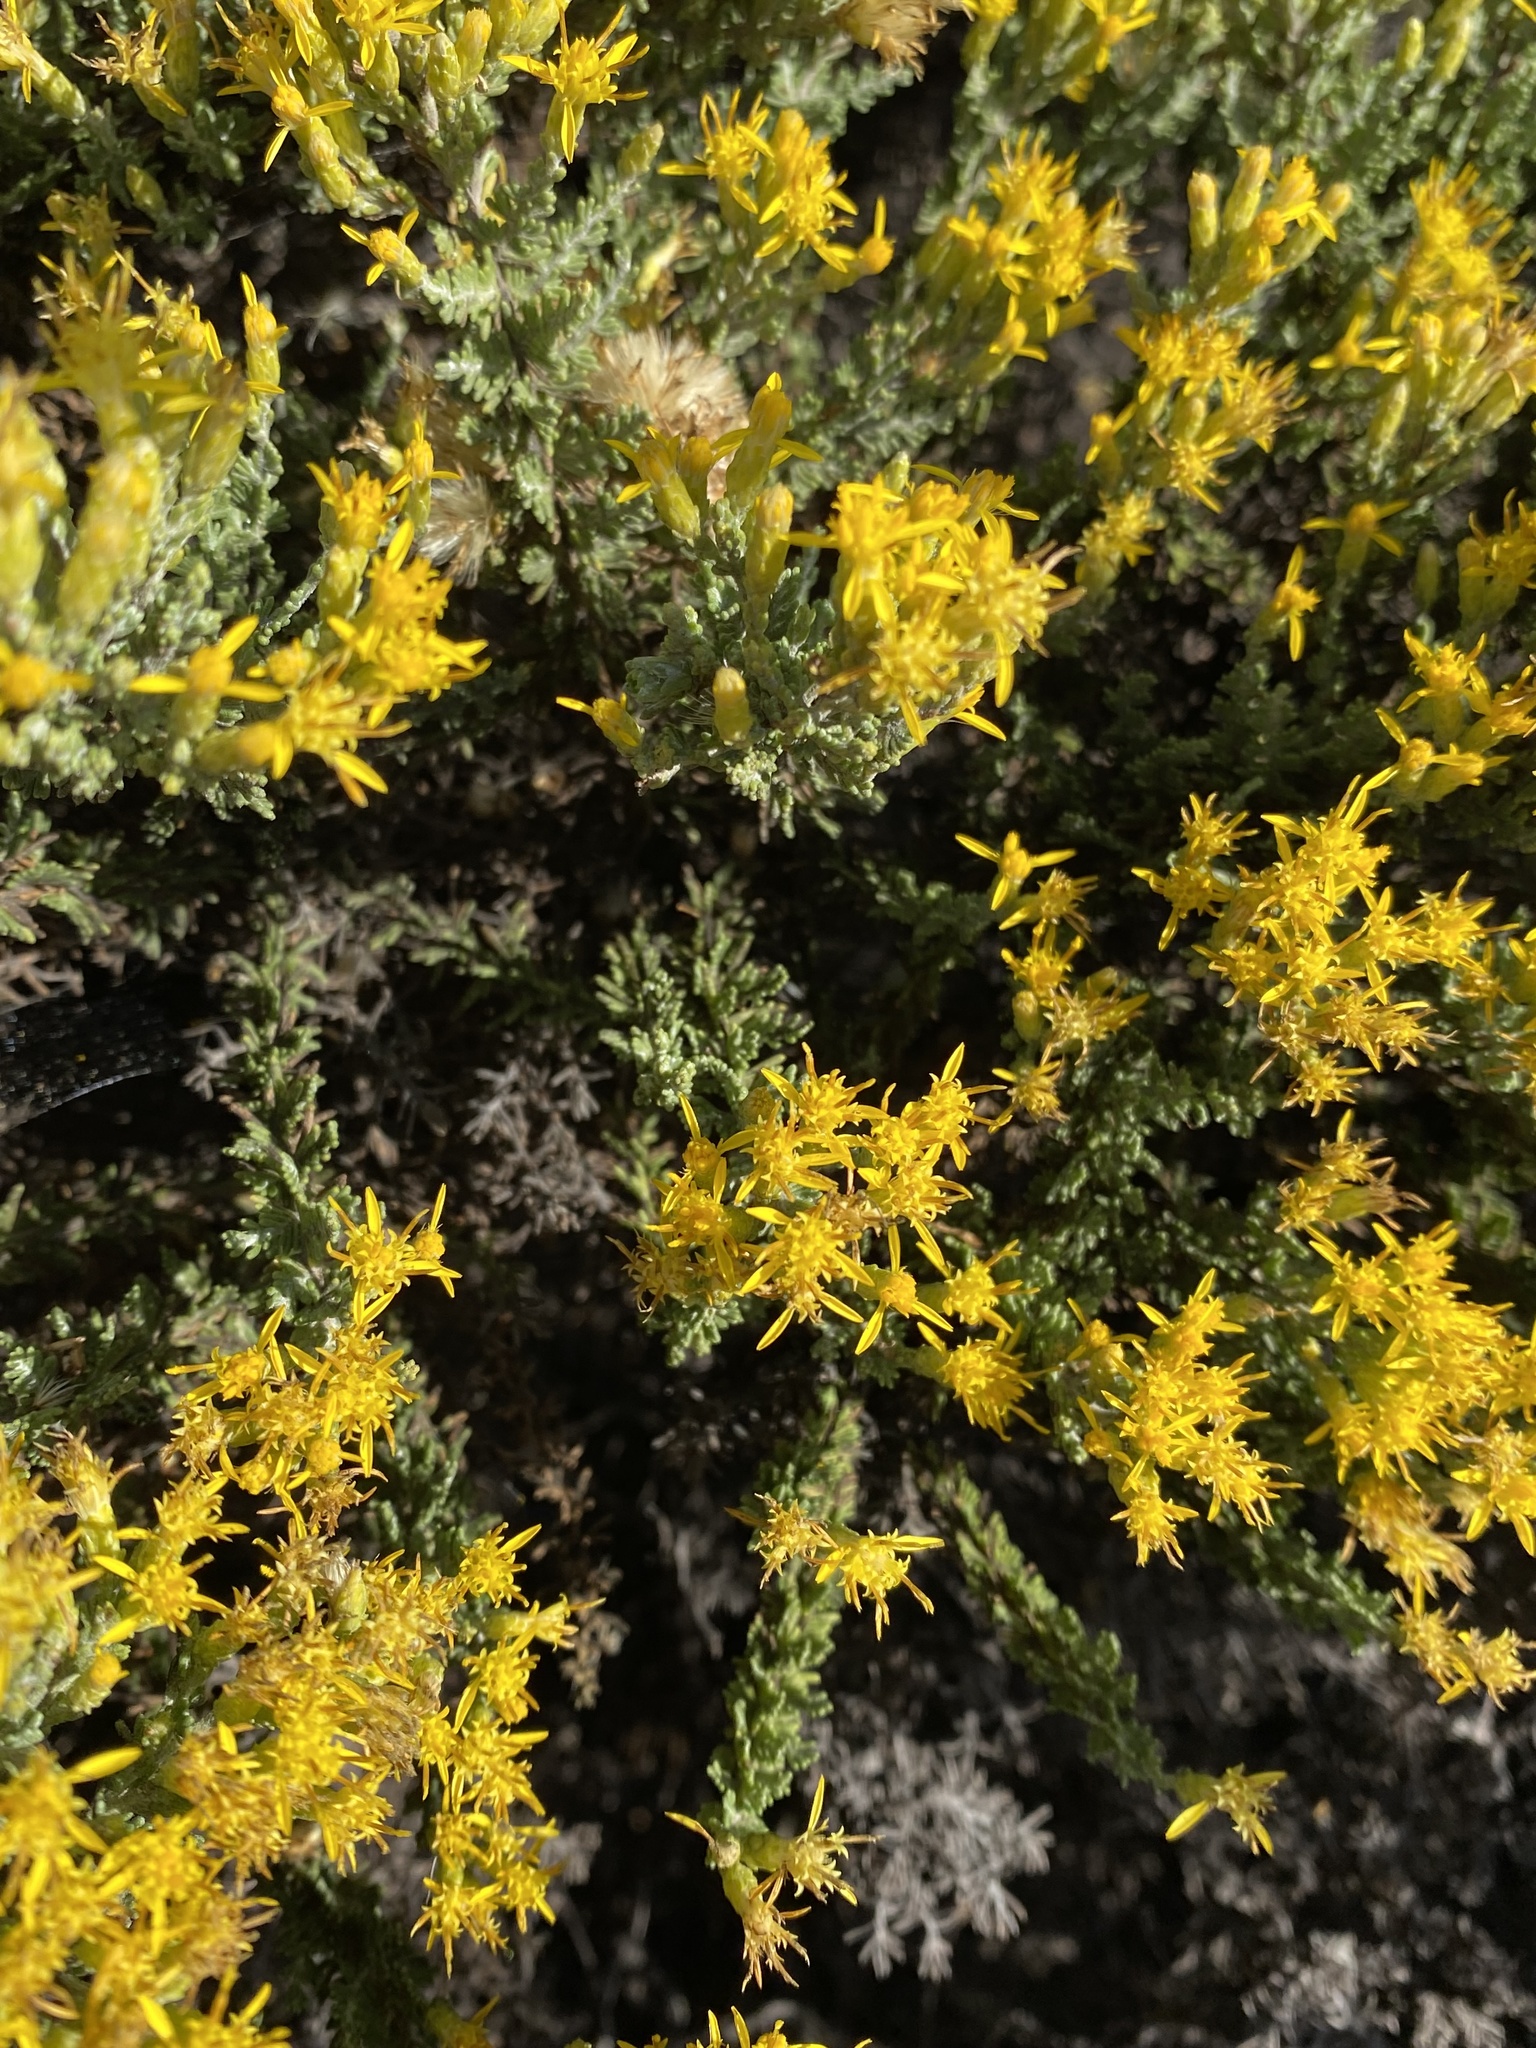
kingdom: Plantae
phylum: Tracheophyta
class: Magnoliopsida
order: Asterales
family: Asteraceae
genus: Ericameria
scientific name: Ericameria ericoides
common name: California goldenbush
